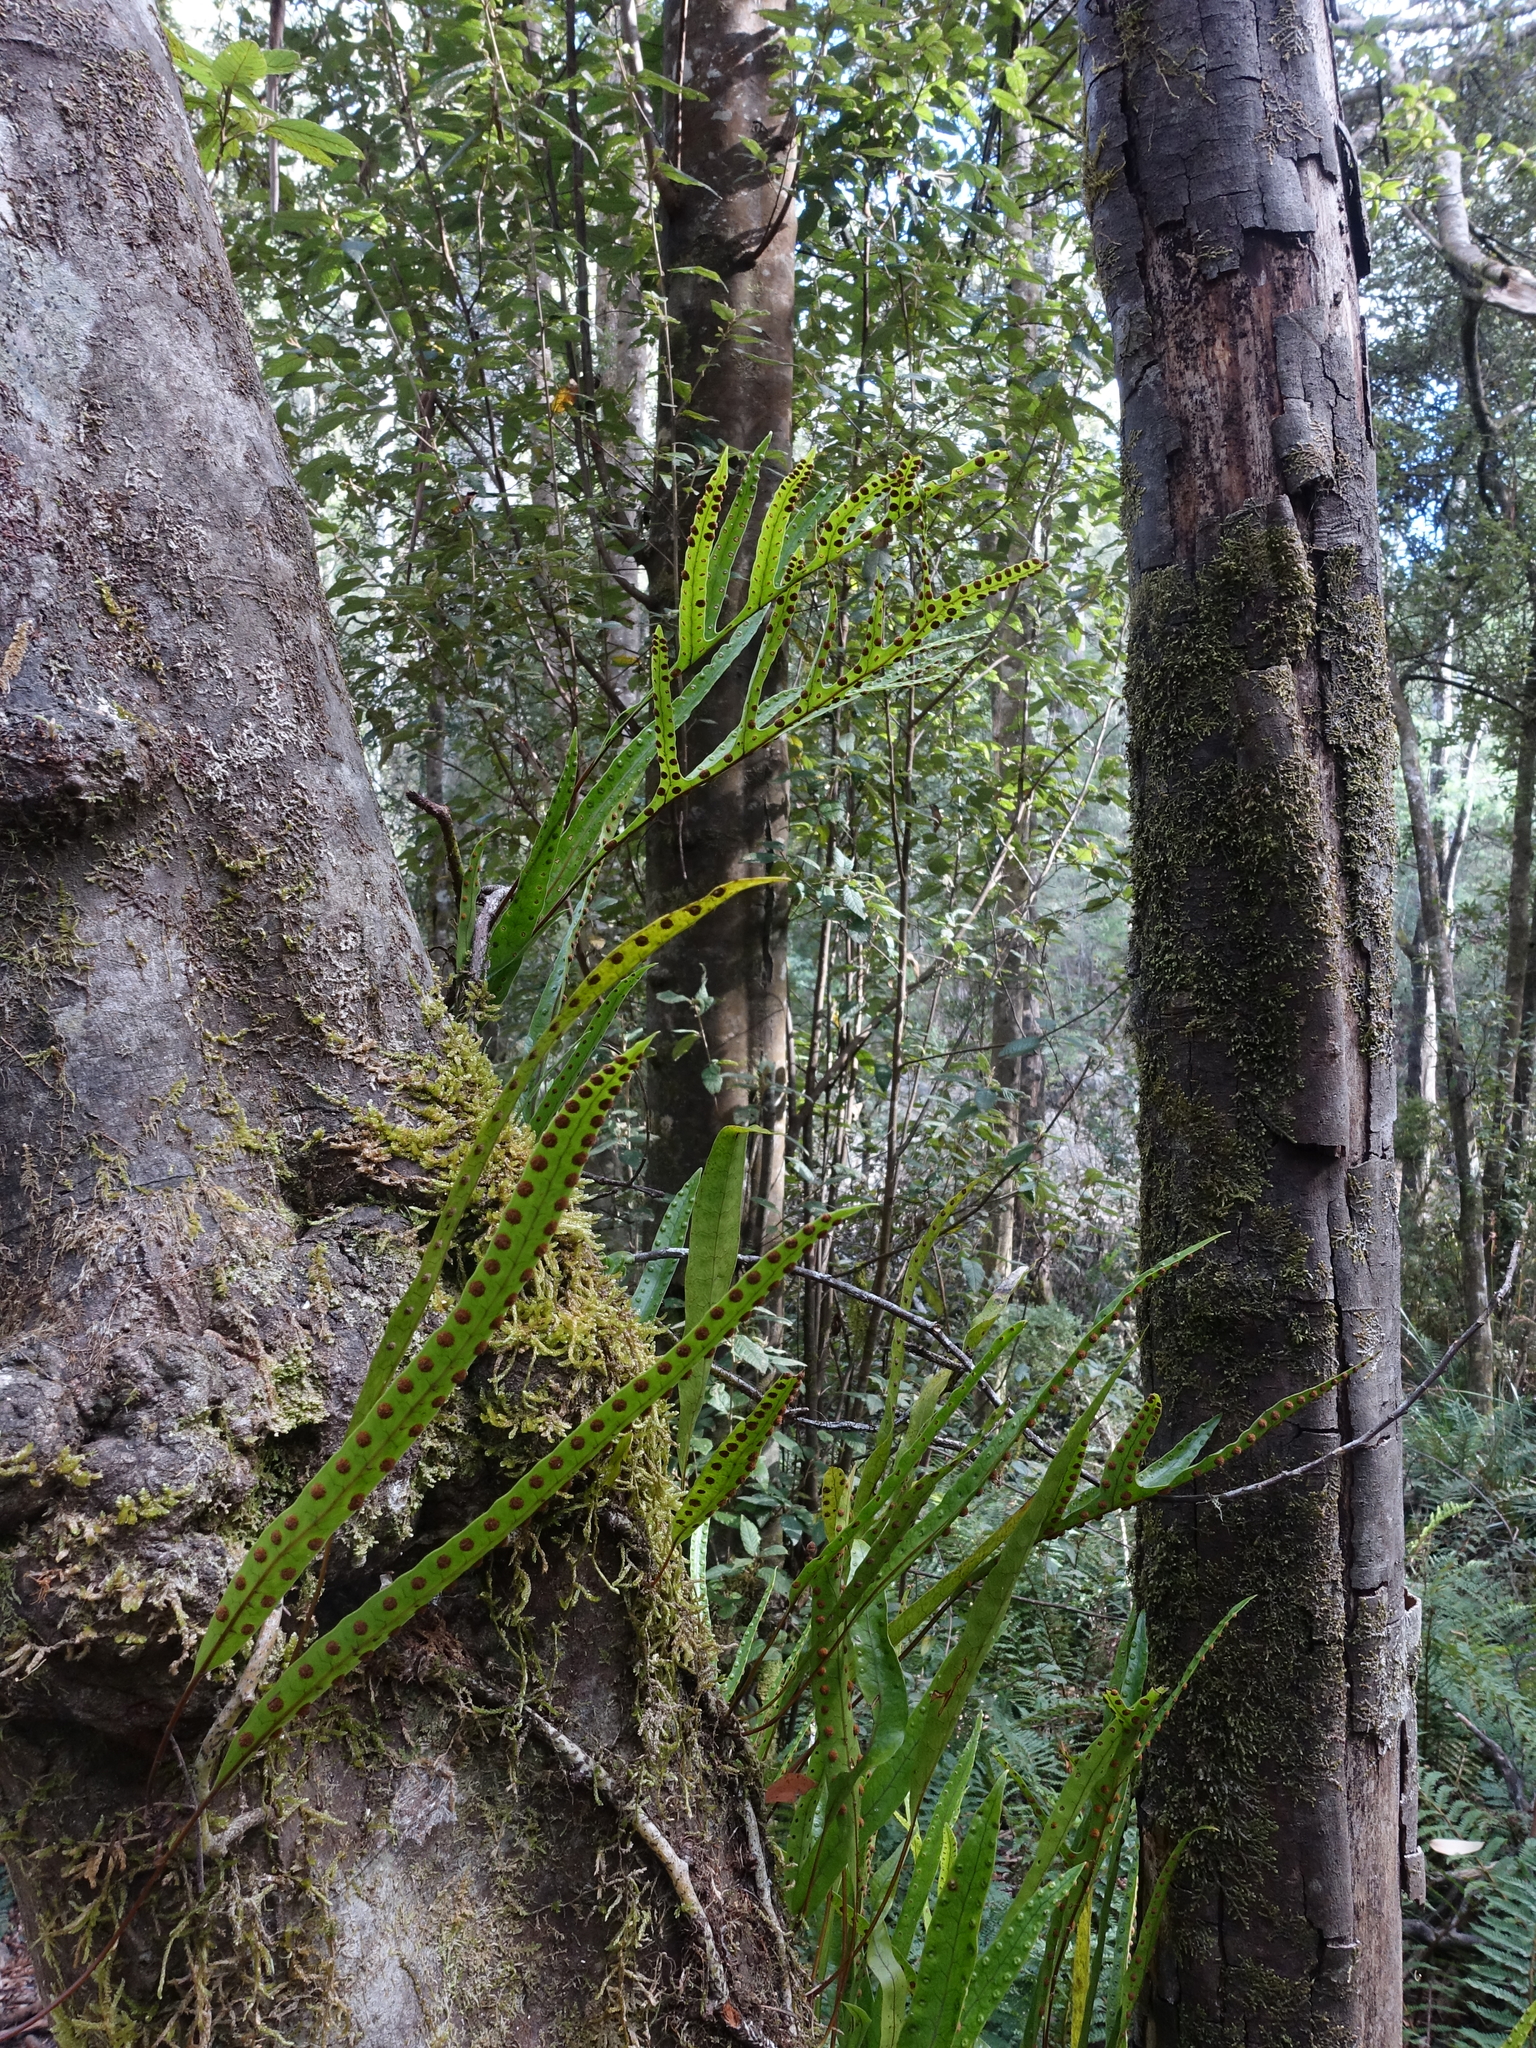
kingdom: Plantae
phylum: Tracheophyta
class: Polypodiopsida
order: Polypodiales
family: Polypodiaceae
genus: Lecanopteris
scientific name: Lecanopteris pustulata
